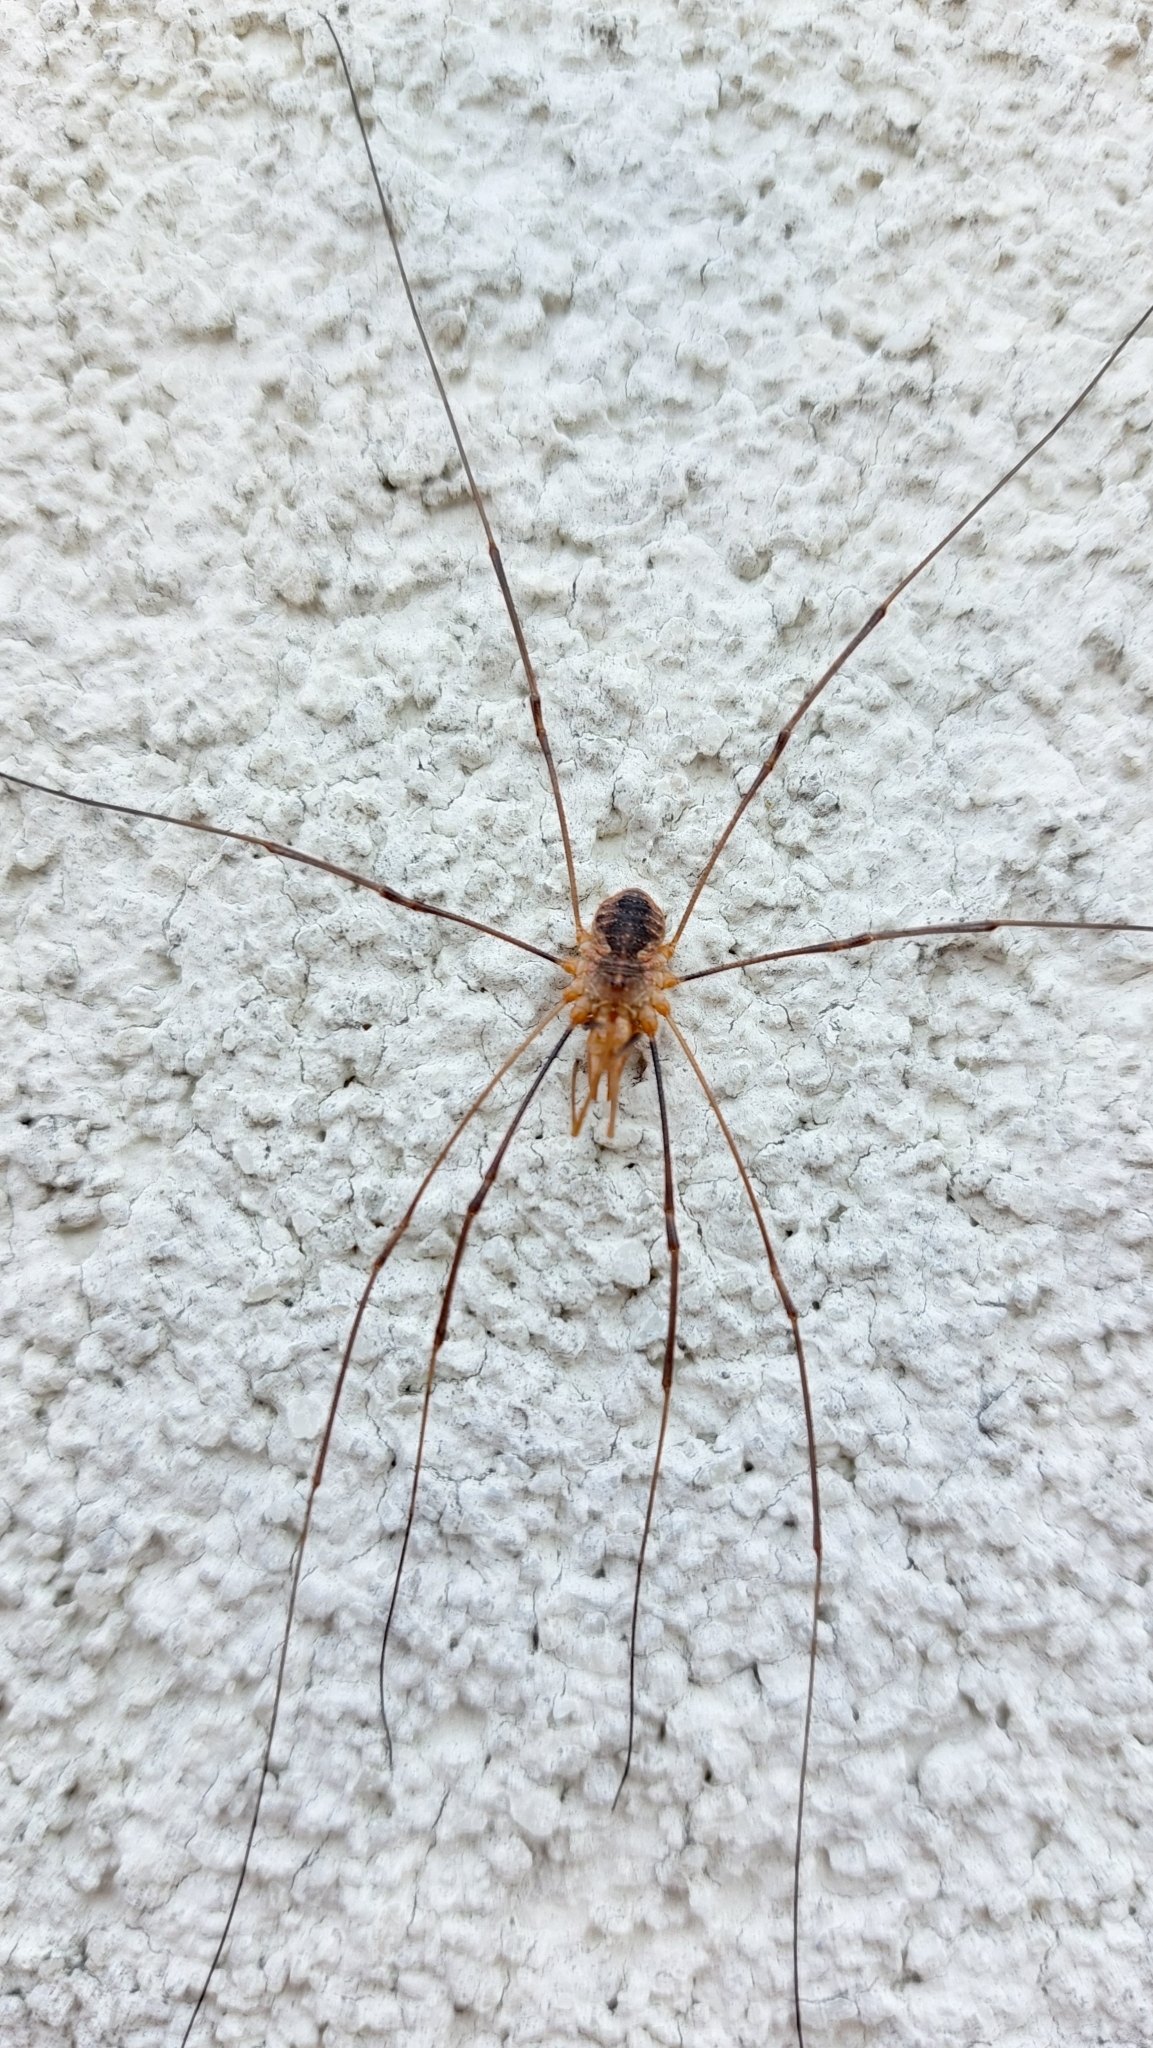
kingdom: Animalia
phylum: Arthropoda
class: Arachnida
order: Opiliones
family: Phalangiidae
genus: Phalangium
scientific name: Phalangium opilio
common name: Daddy longleg
